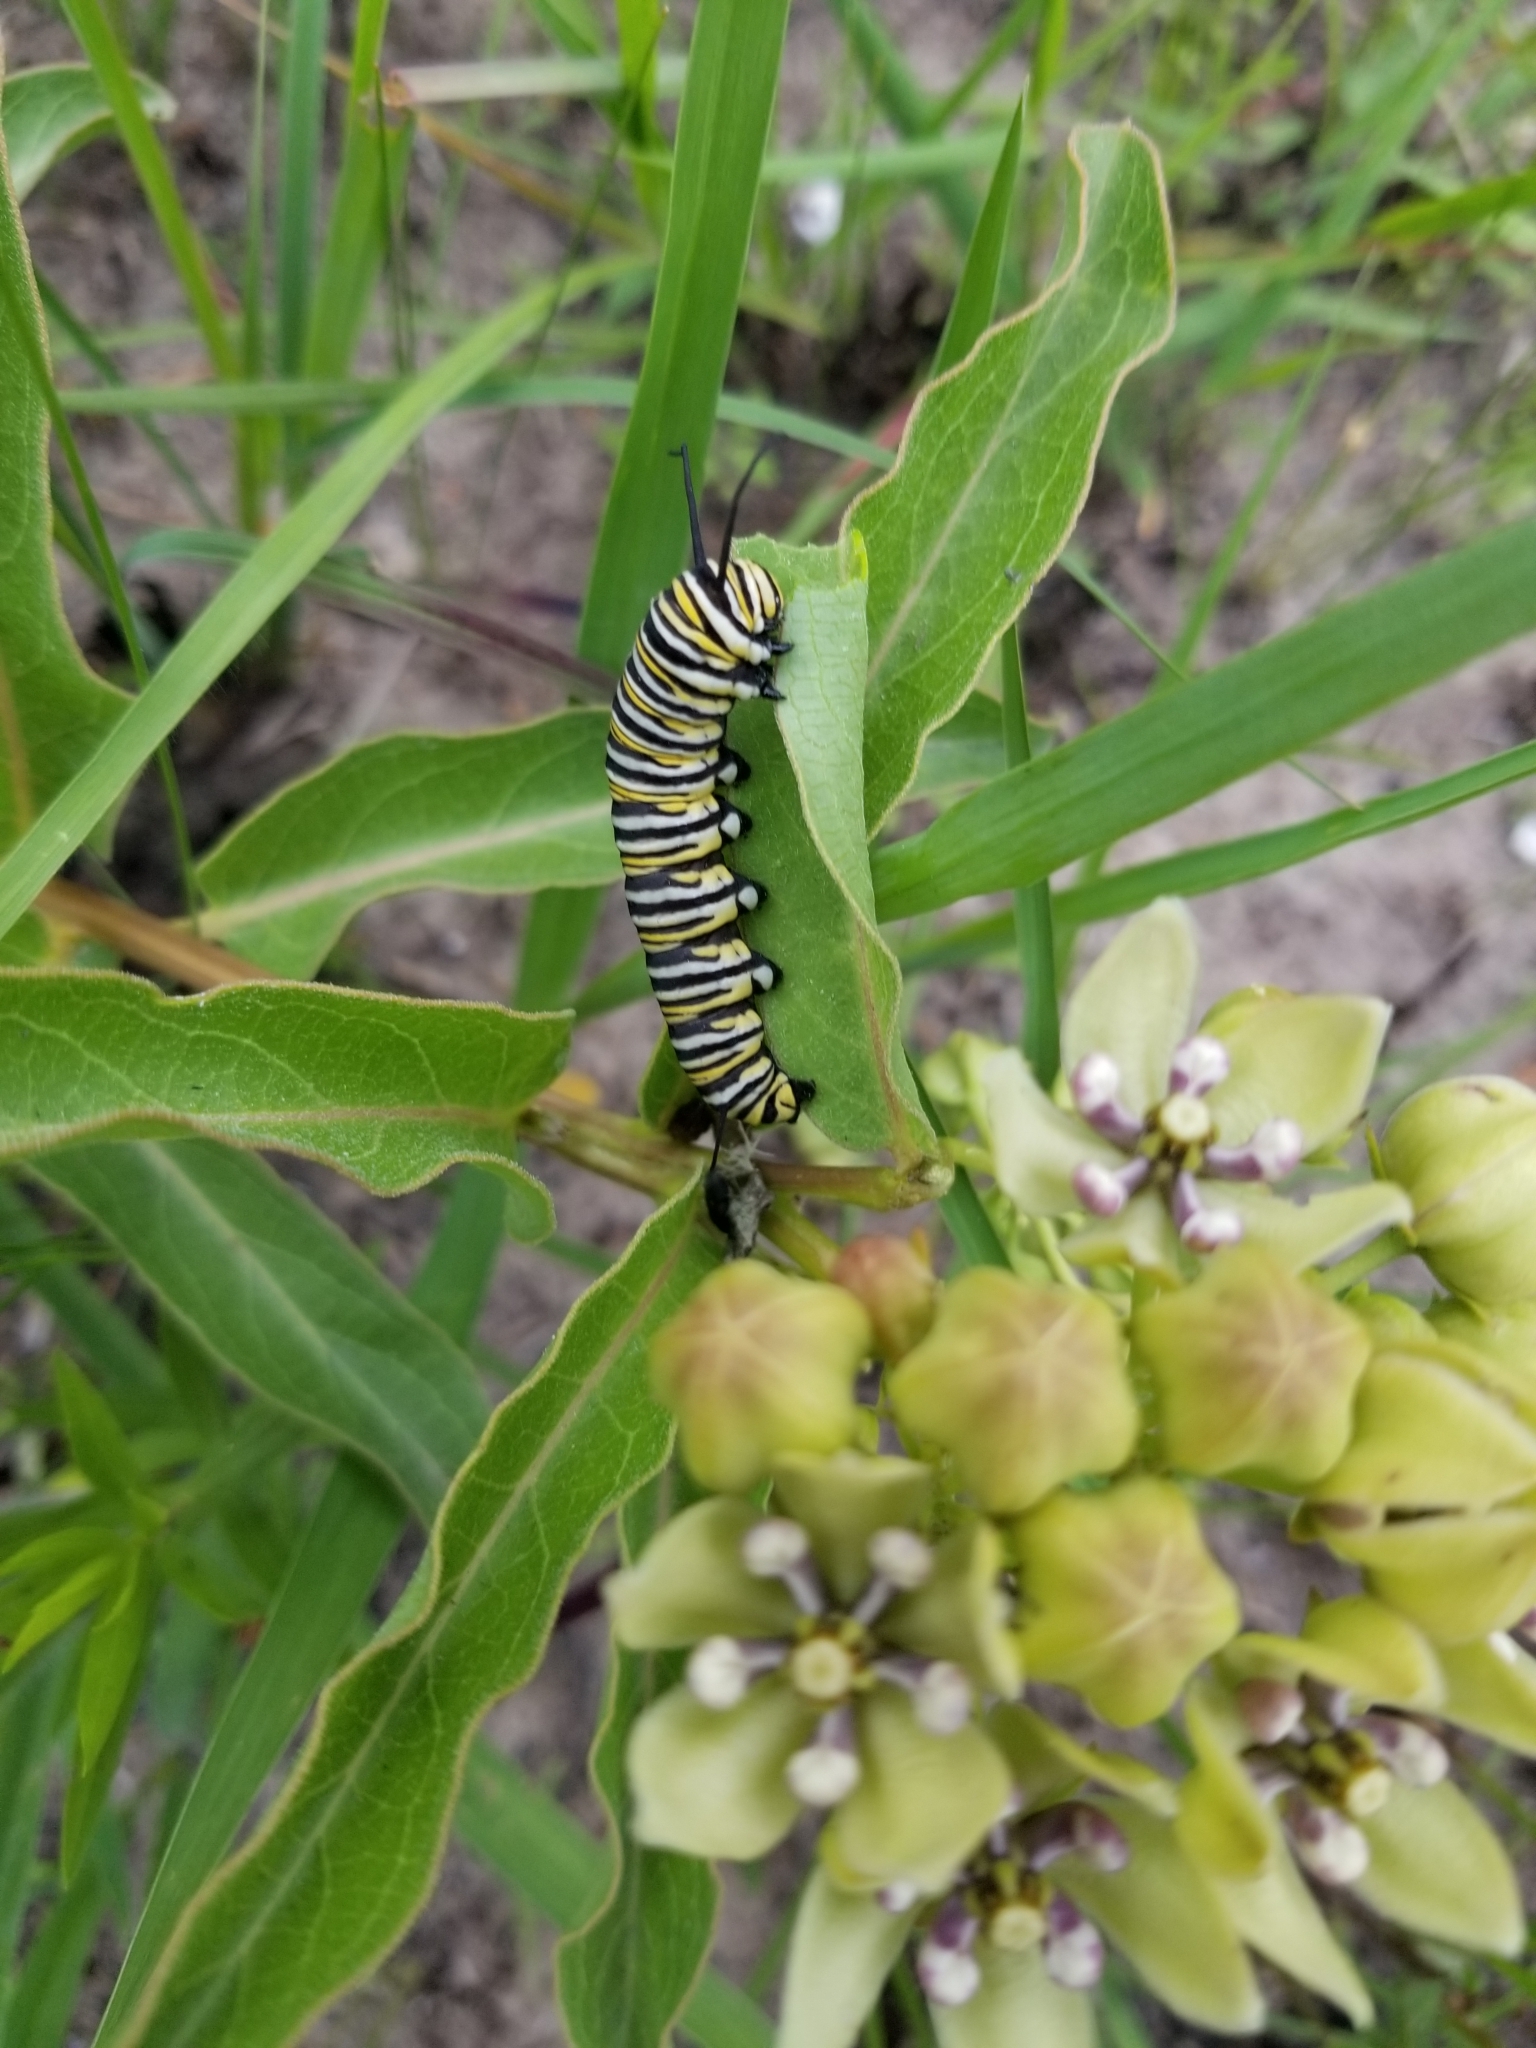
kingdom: Plantae
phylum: Tracheophyta
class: Magnoliopsida
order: Gentianales
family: Apocynaceae
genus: Asclepias
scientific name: Asclepias viridis
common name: Antelope-horns
